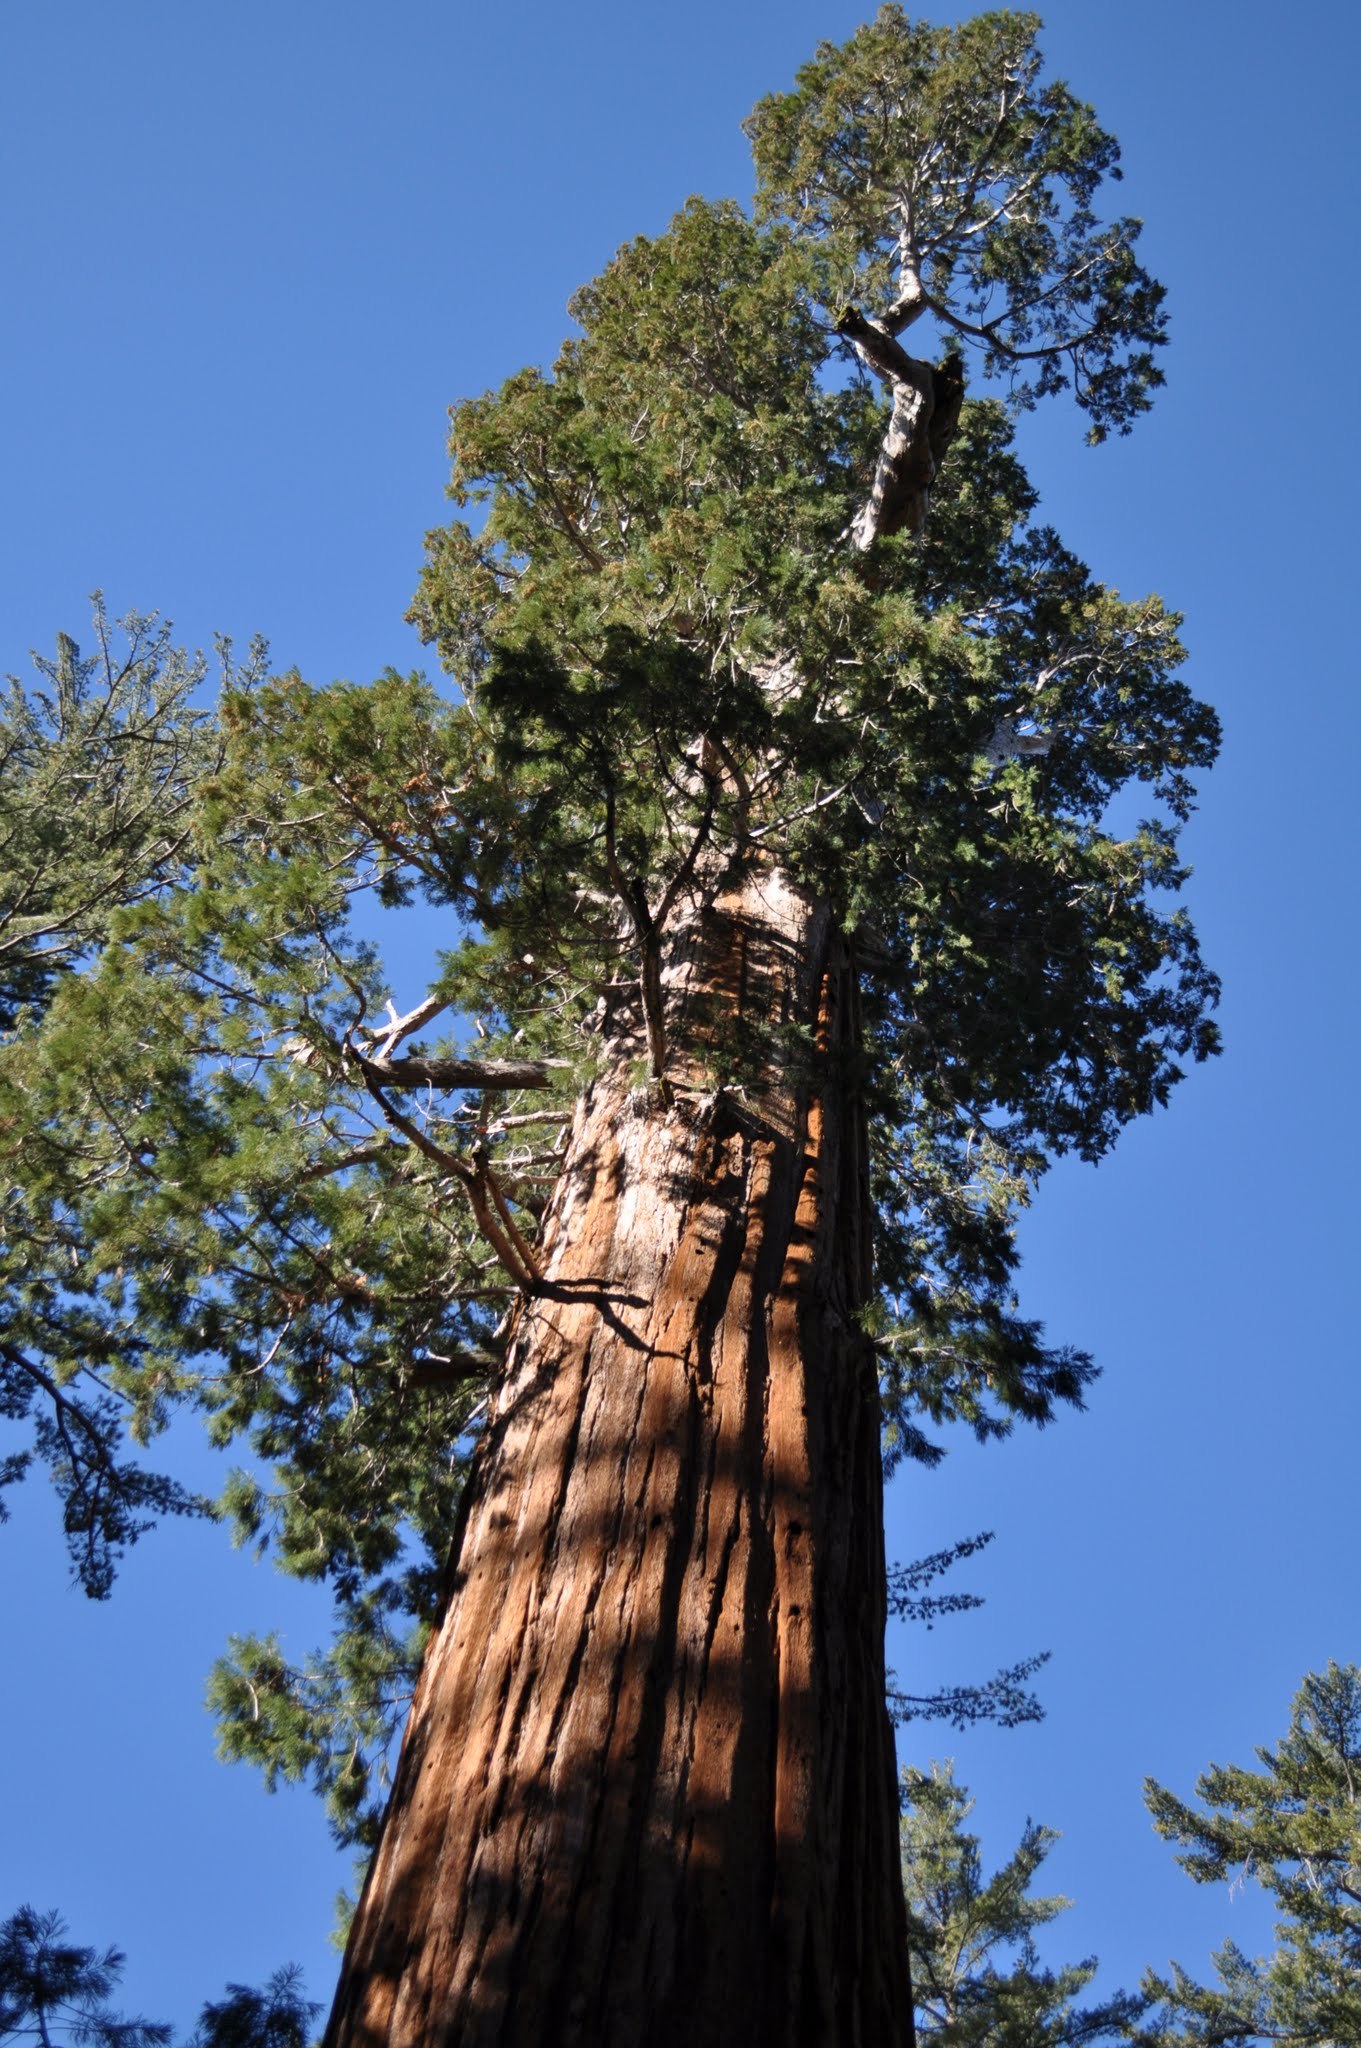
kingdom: Plantae
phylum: Tracheophyta
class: Pinopsida
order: Pinales
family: Cupressaceae
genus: Sequoiadendron
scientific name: Sequoiadendron giganteum
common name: Wellingtonia
